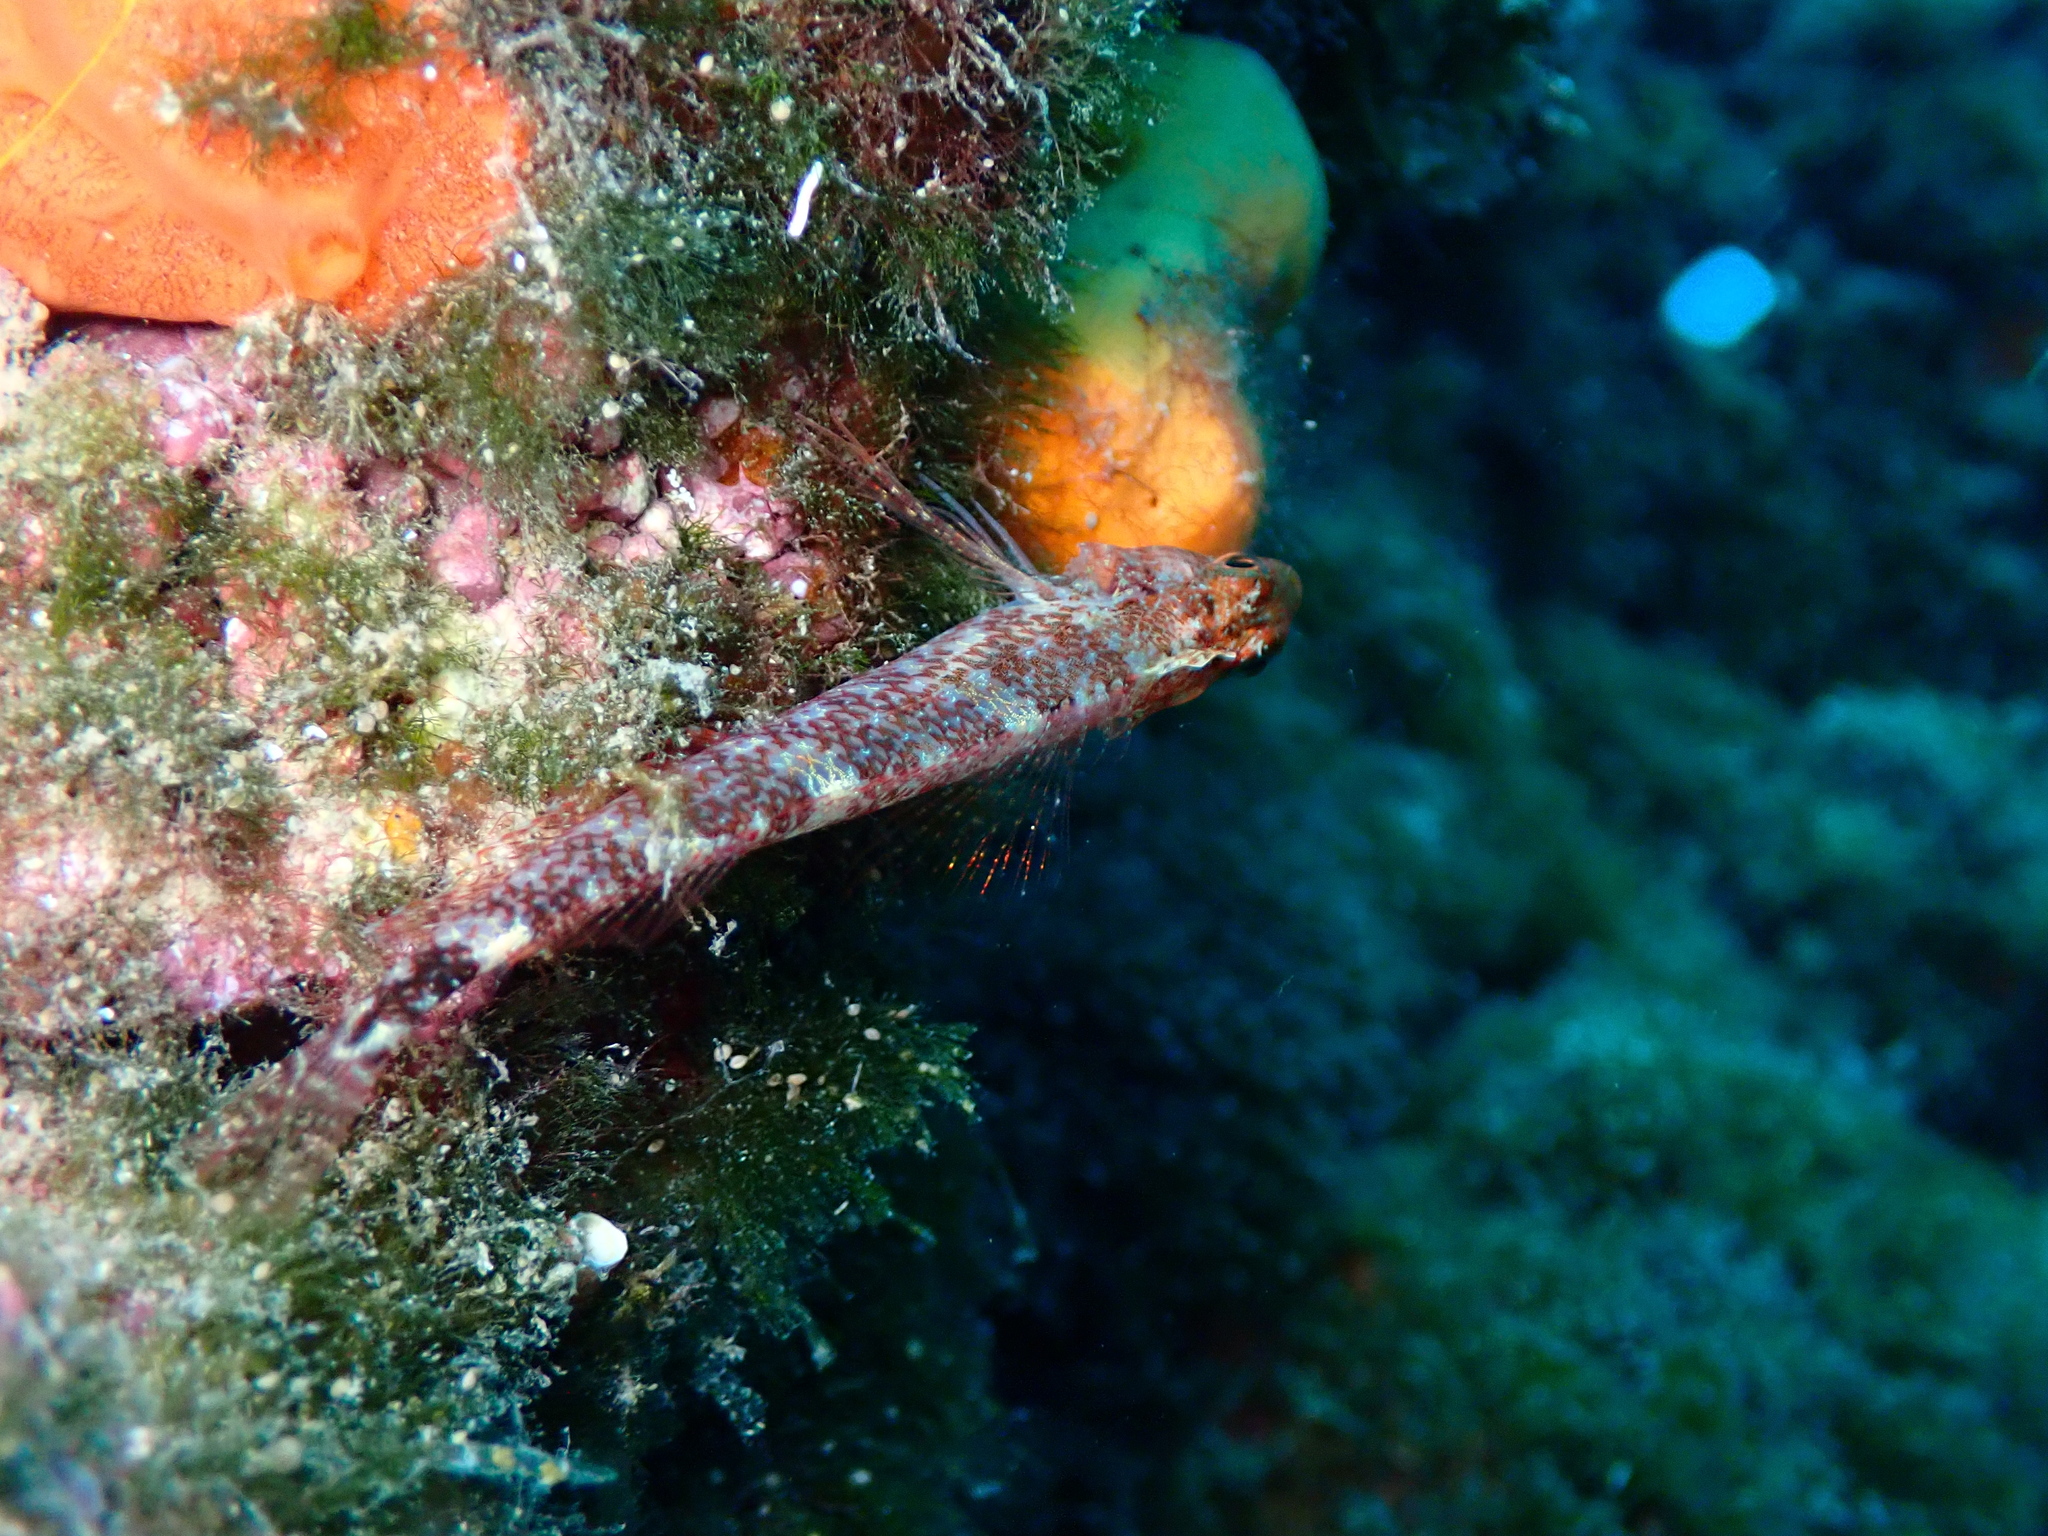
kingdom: Animalia
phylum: Chordata
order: Perciformes
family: Tripterygiidae
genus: Tripterygion
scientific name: Tripterygion delaisi
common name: Black-face blenny
